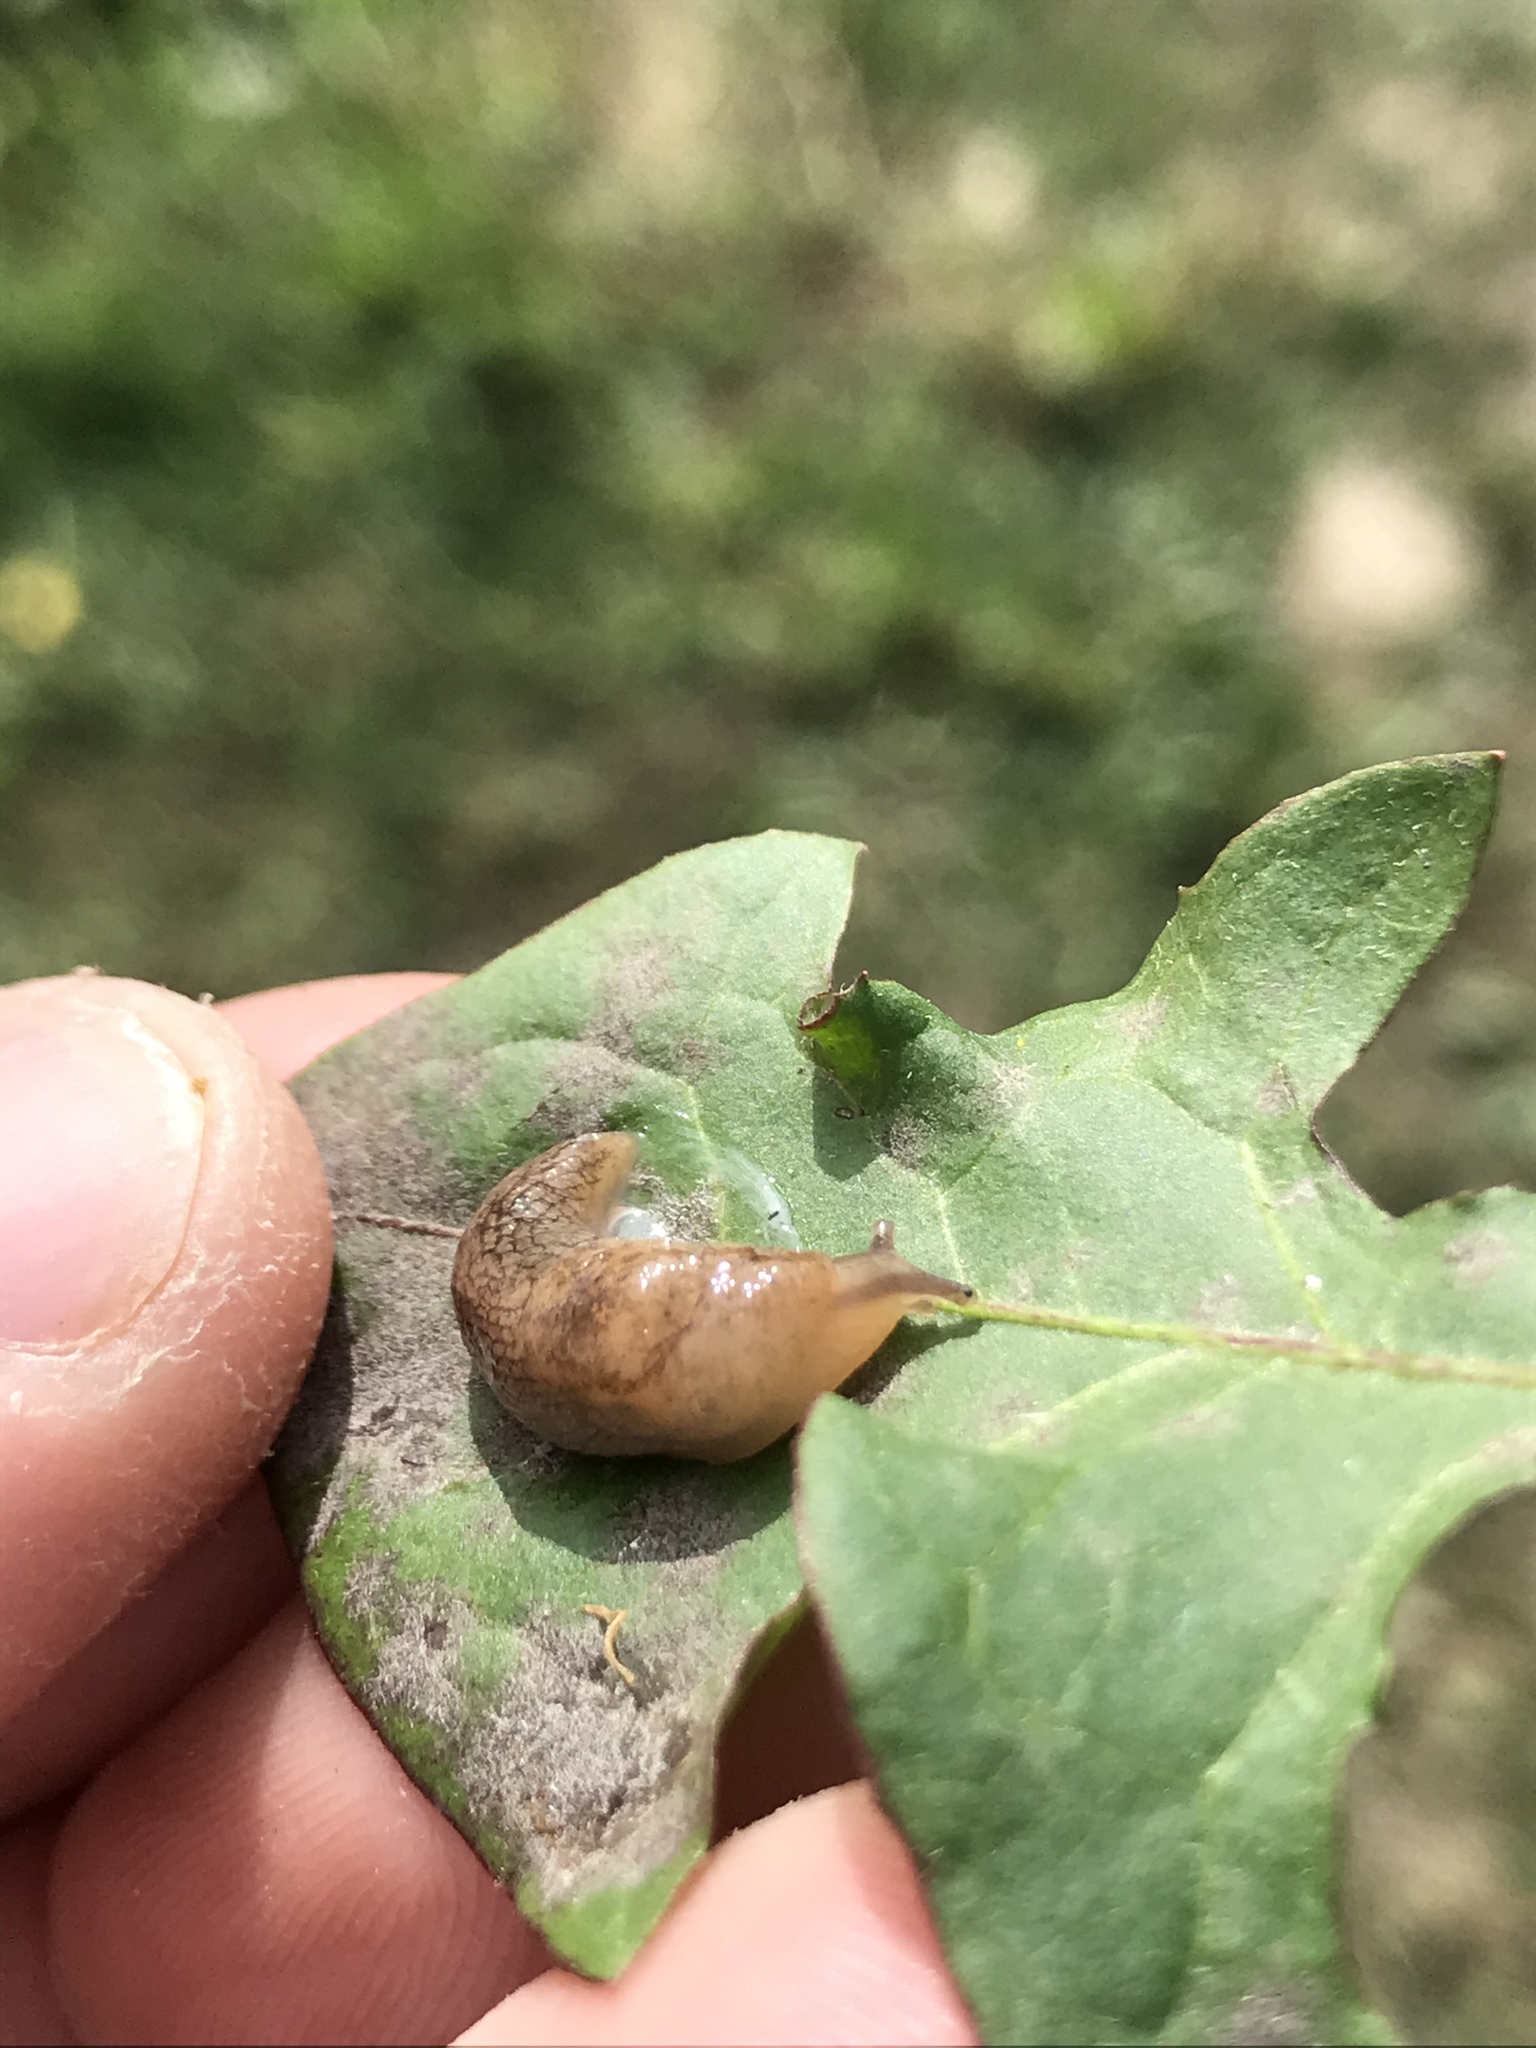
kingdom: Animalia
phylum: Mollusca
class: Gastropoda
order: Stylommatophora
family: Agriolimacidae
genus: Deroceras
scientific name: Deroceras reticulatum
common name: Gray field slug
